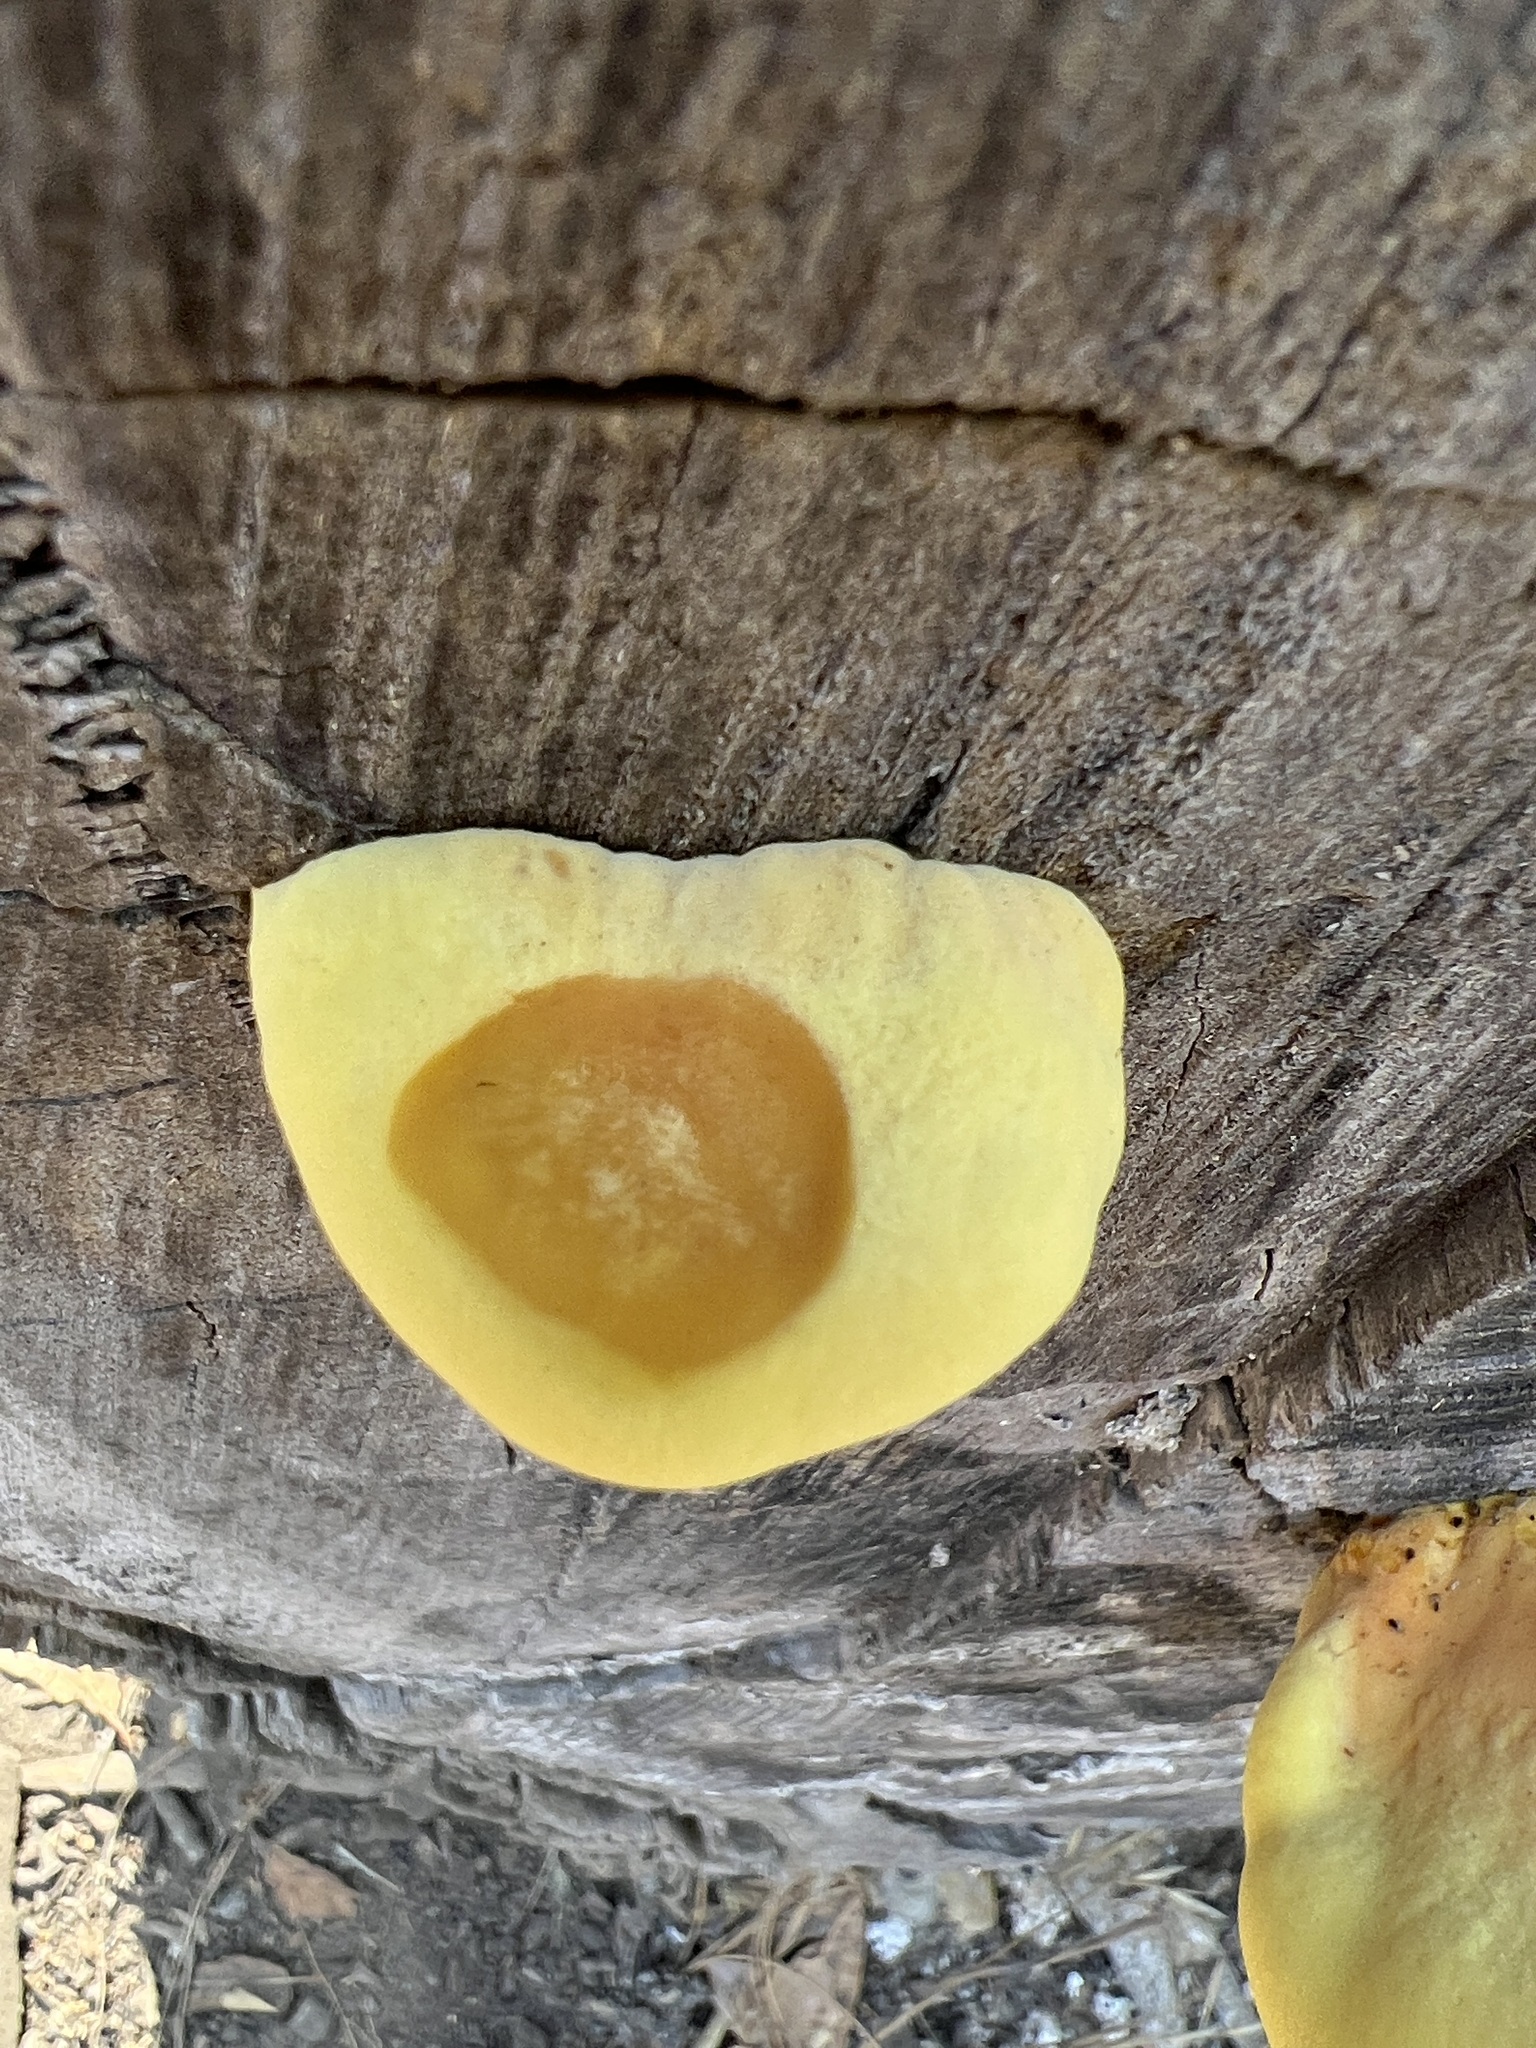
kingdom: Fungi
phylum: Basidiomycota
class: Agaricomycetes
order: Polyporales
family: Laetiporaceae
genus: Laetiporus
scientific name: Laetiporus gilbertsonii
